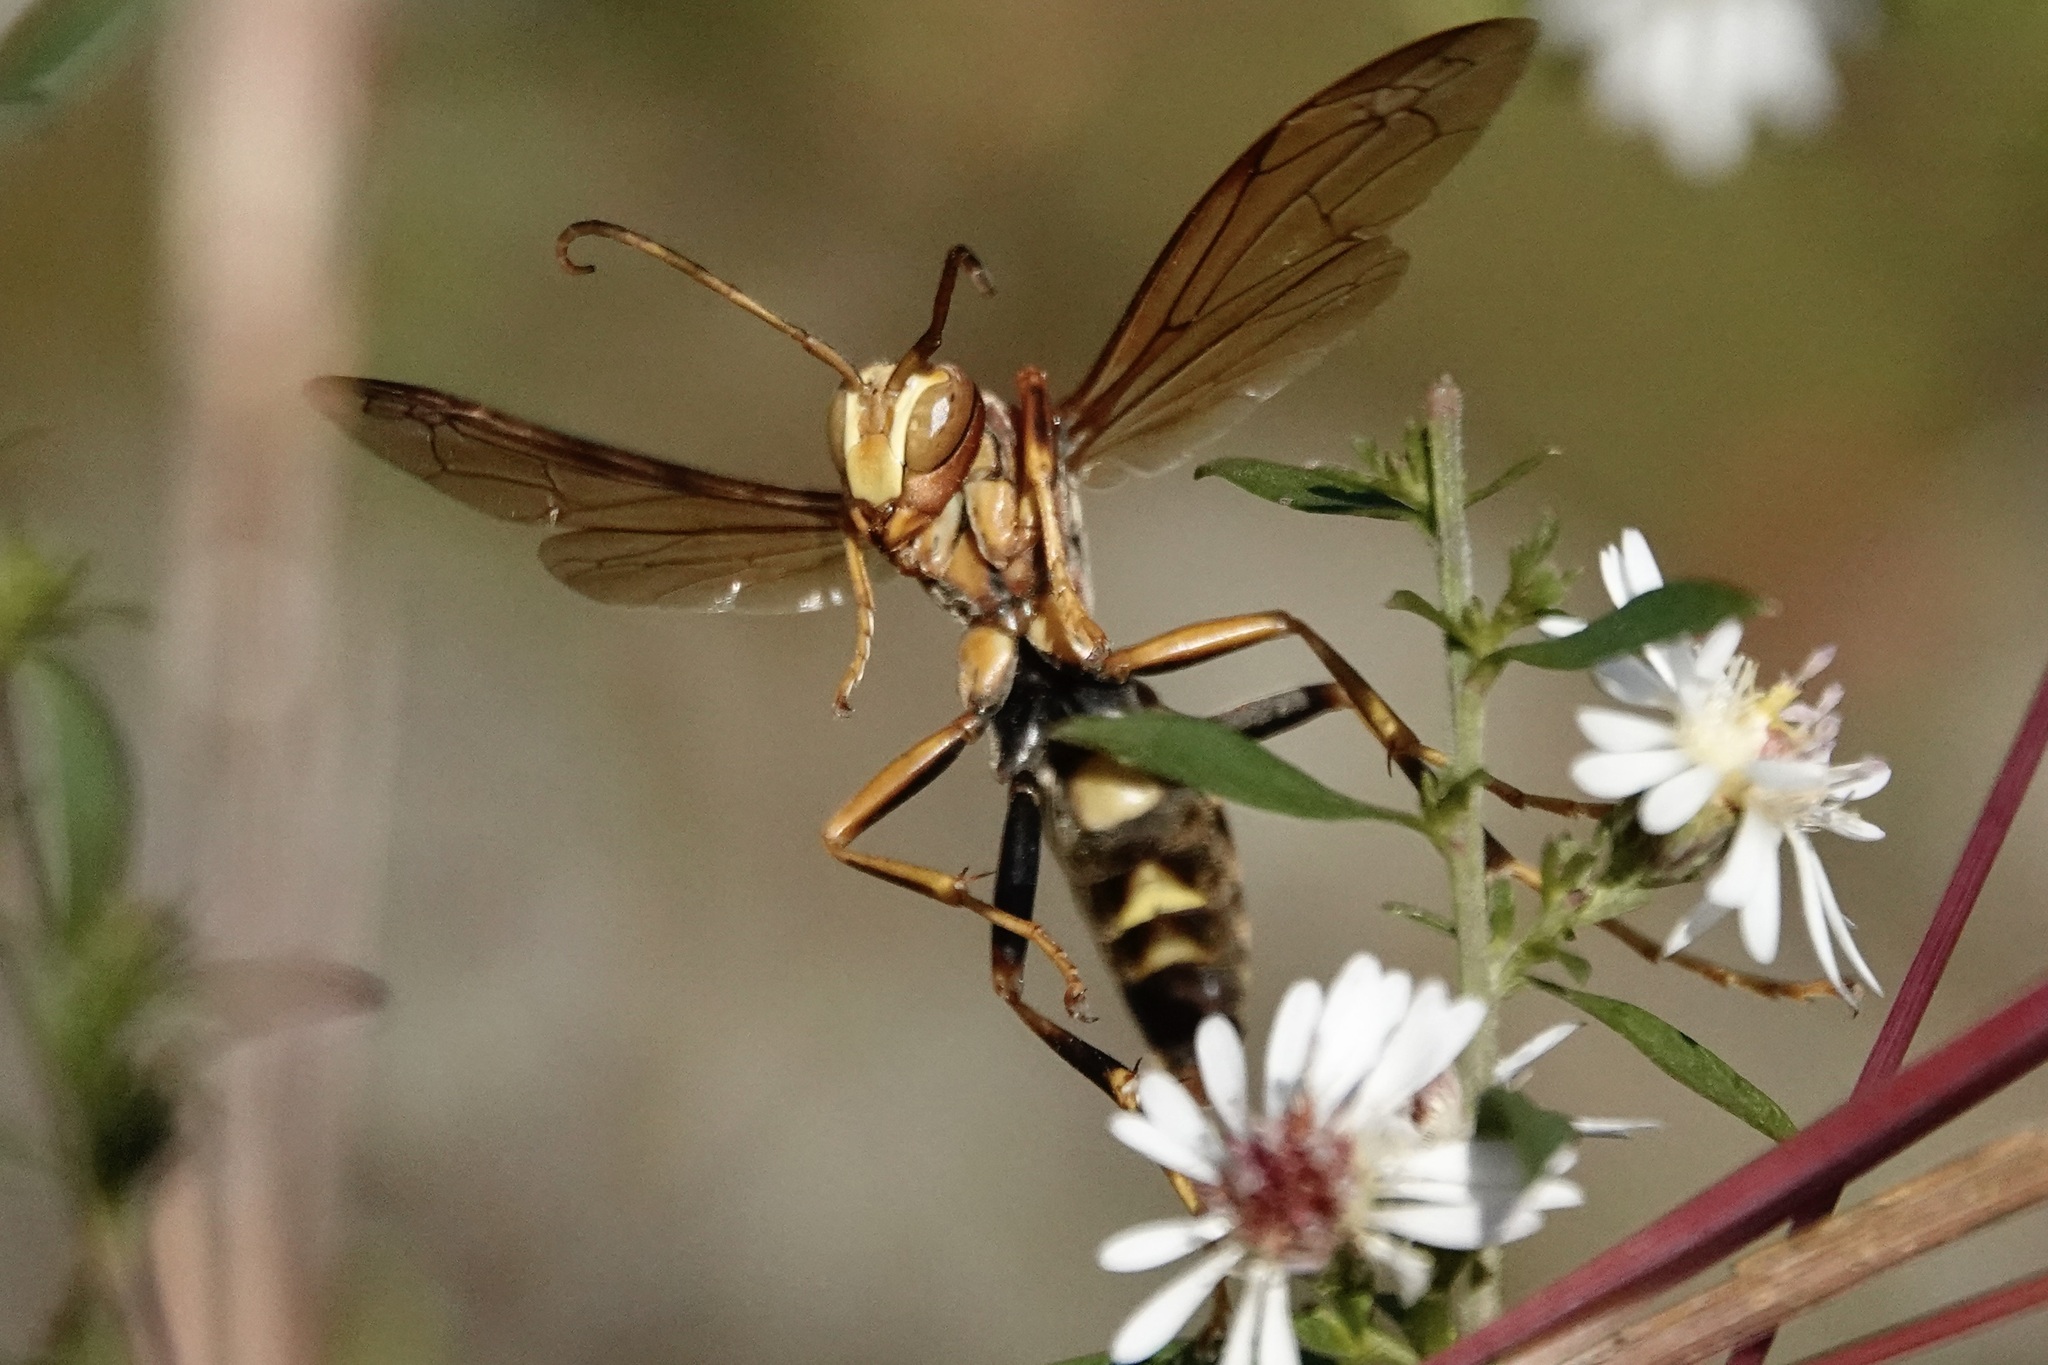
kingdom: Animalia
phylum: Arthropoda
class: Insecta
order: Hymenoptera
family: Eumenidae
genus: Polistes
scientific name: Polistes metricus
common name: Metric paper wasp
